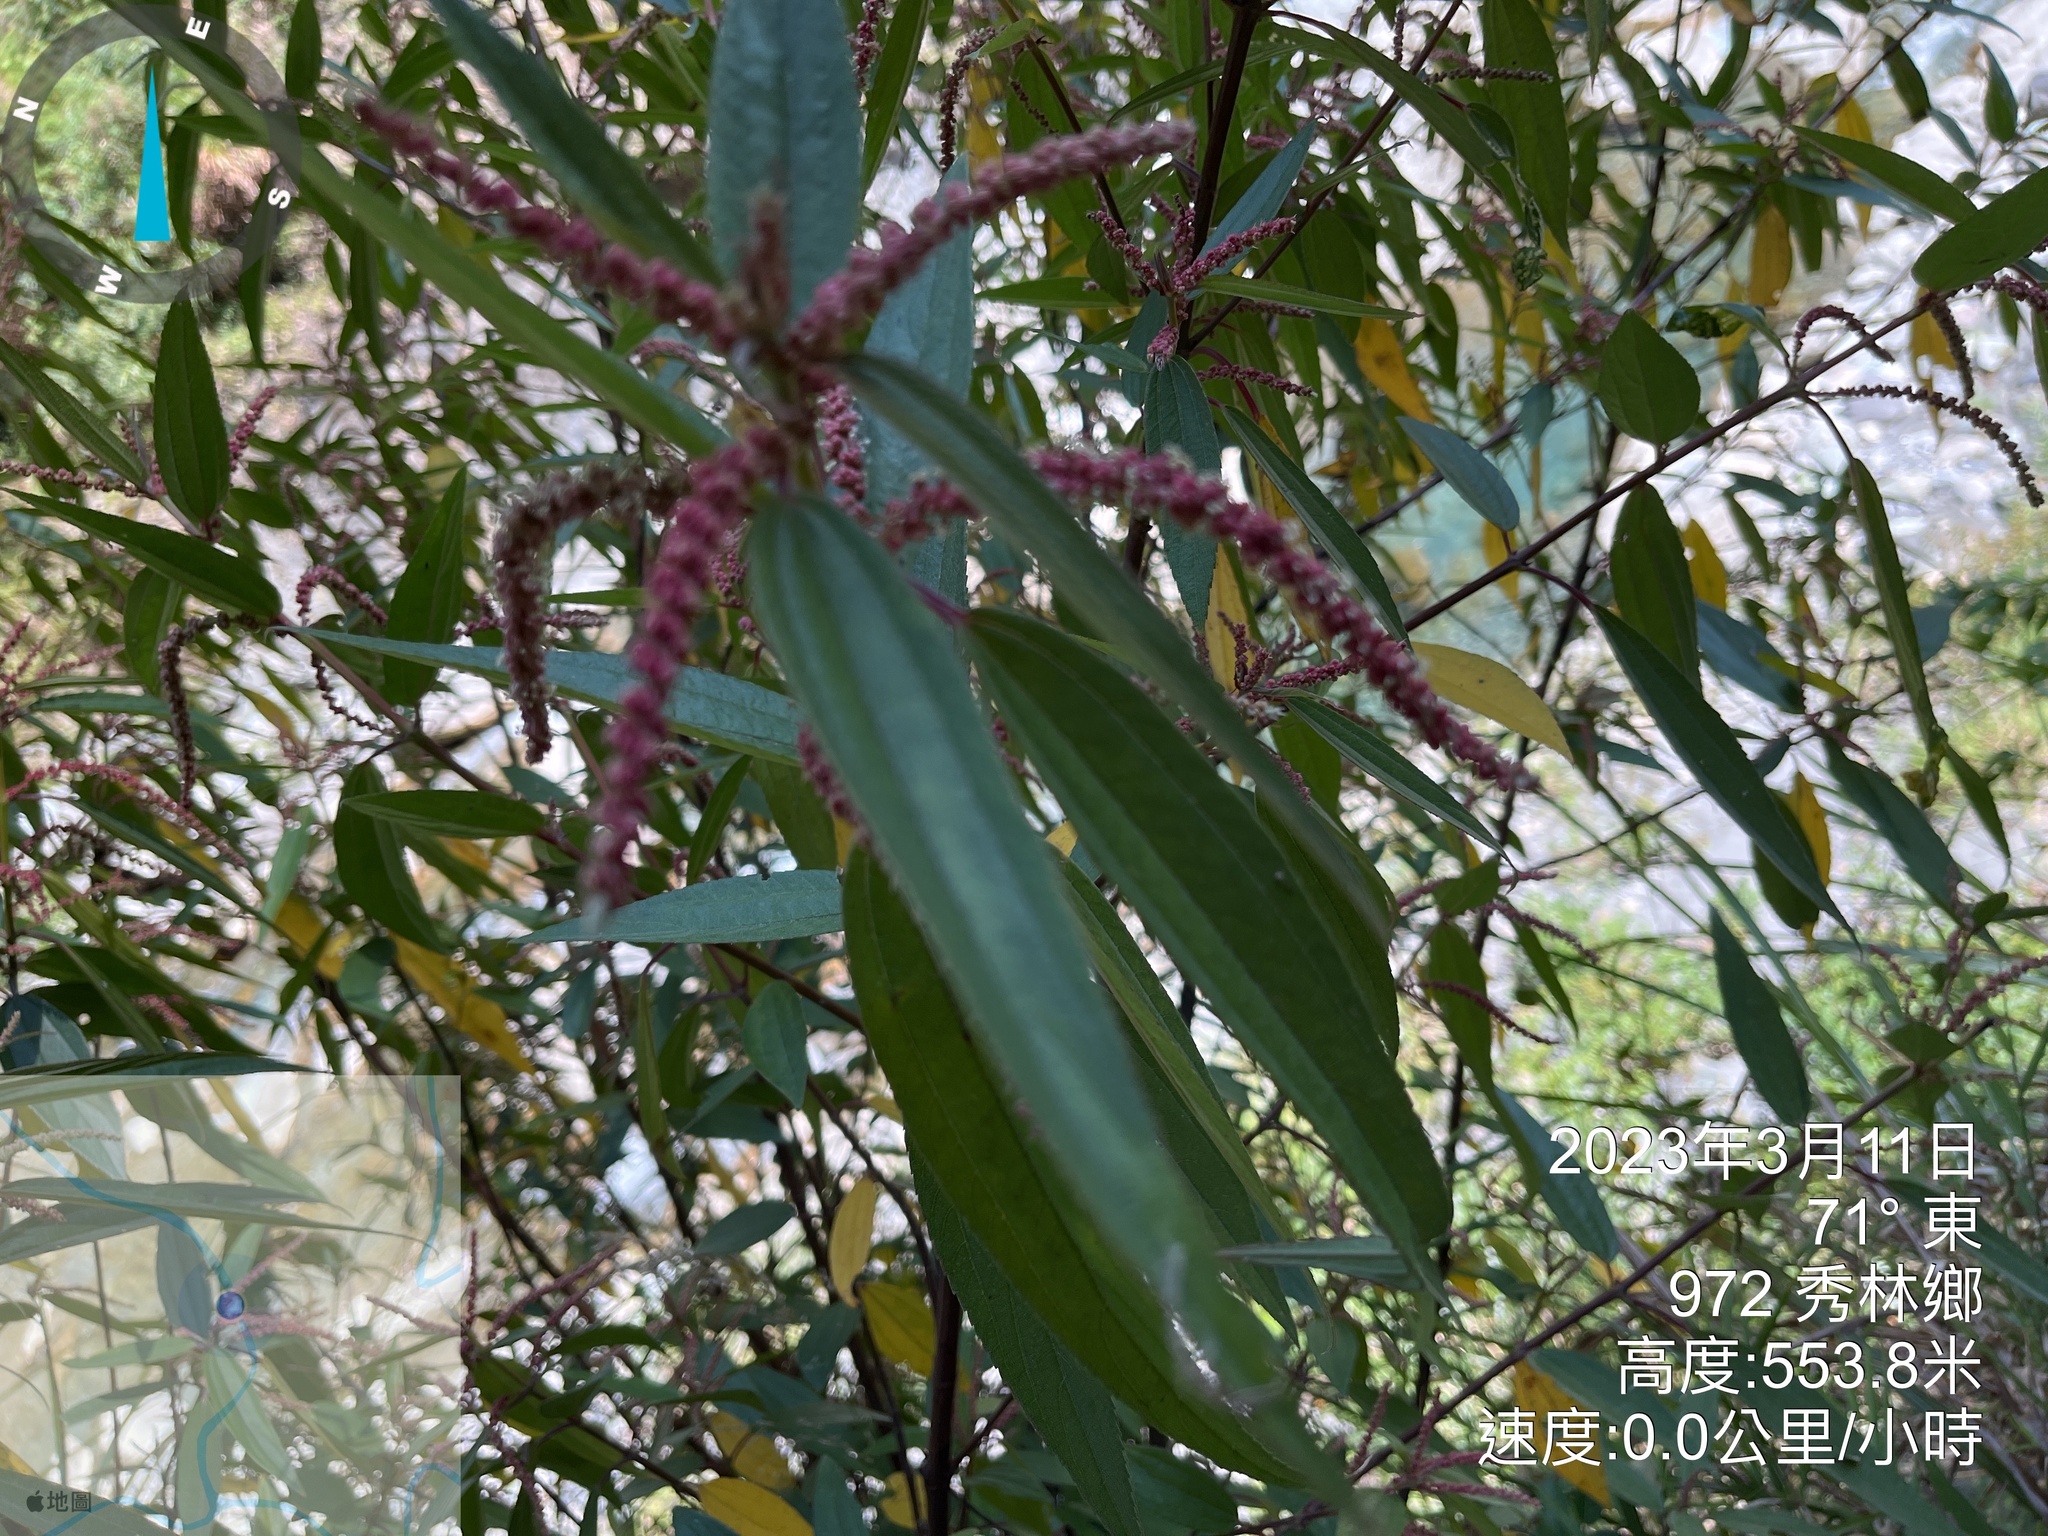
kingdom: Plantae
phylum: Tracheophyta
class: Magnoliopsida
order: Rosales
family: Urticaceae
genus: Boehmeria
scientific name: Boehmeria densiflora
